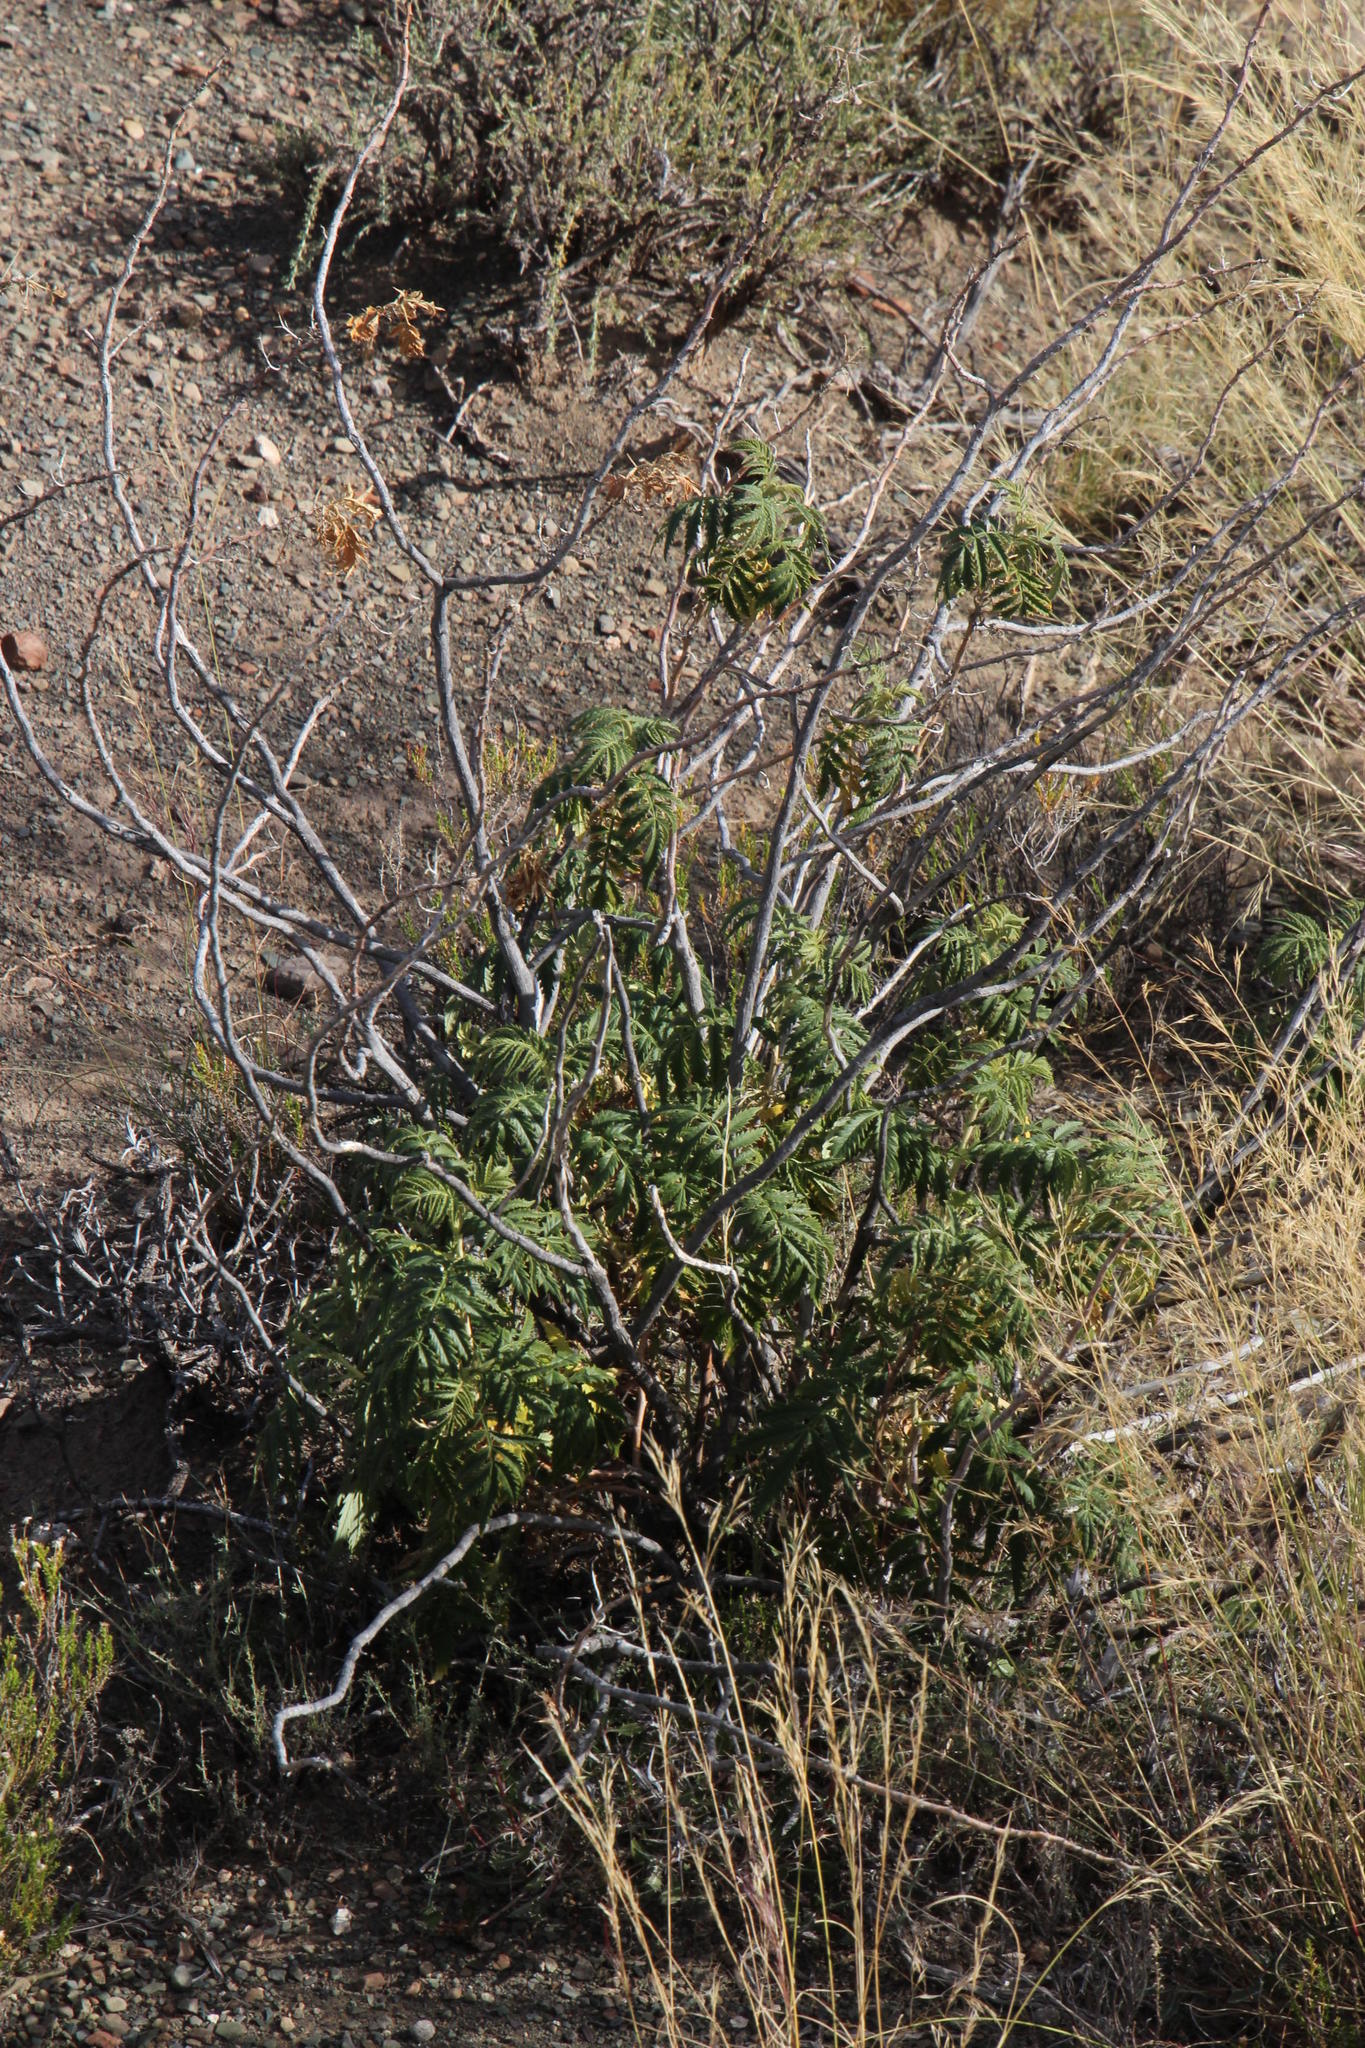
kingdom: Plantae
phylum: Tracheophyta
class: Magnoliopsida
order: Geraniales
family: Melianthaceae
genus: Melianthus
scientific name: Melianthus comosus
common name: Touch-me-not
